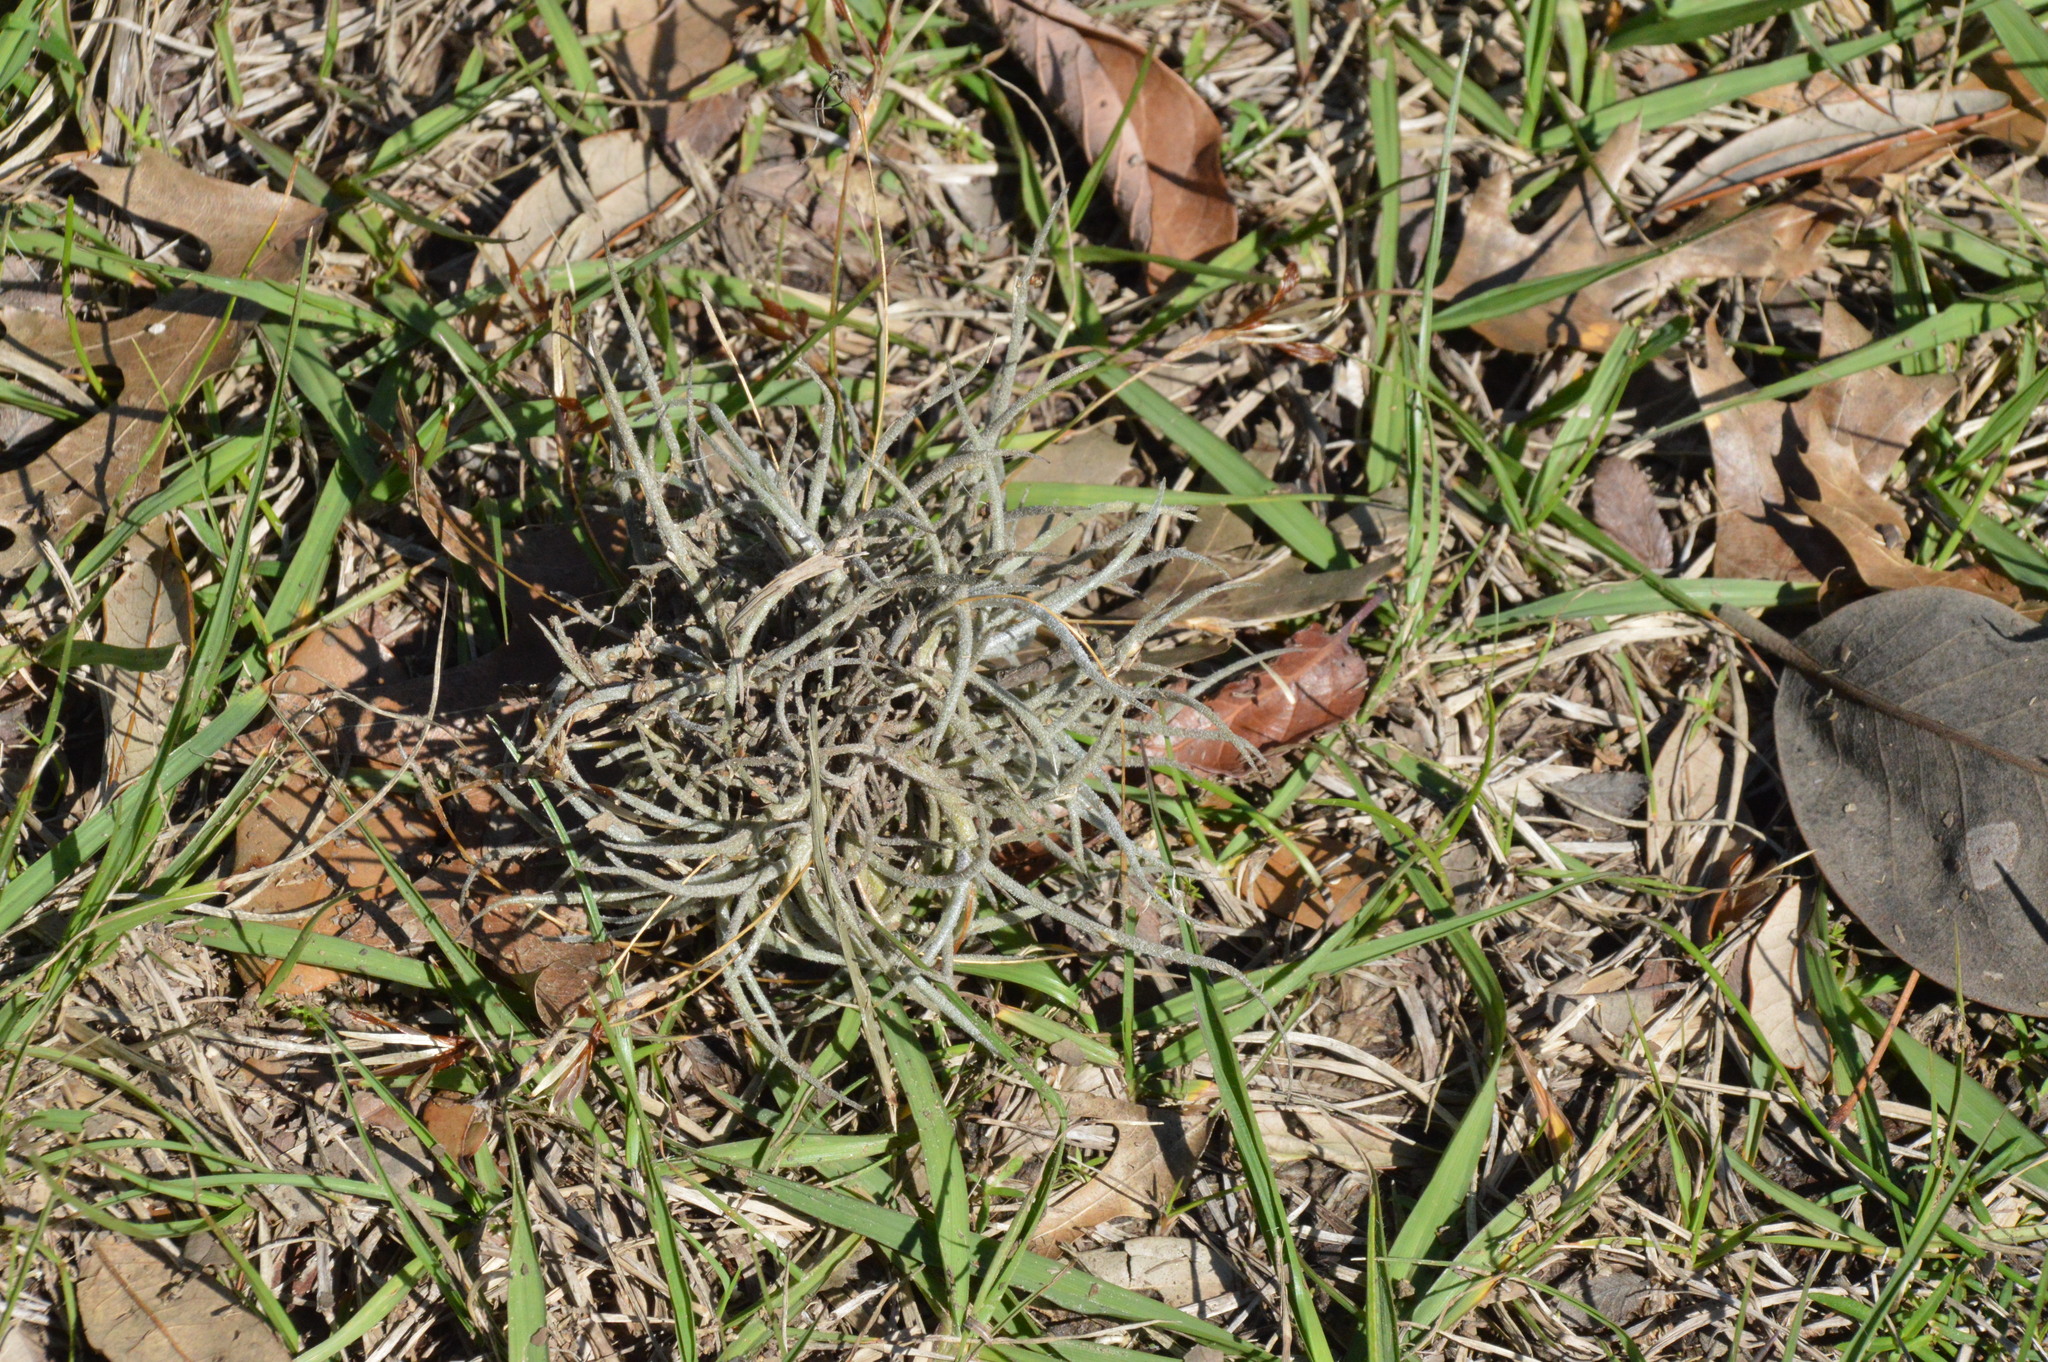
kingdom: Plantae
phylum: Tracheophyta
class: Liliopsida
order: Poales
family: Bromeliaceae
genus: Tillandsia
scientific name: Tillandsia recurvata
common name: Small ballmoss
